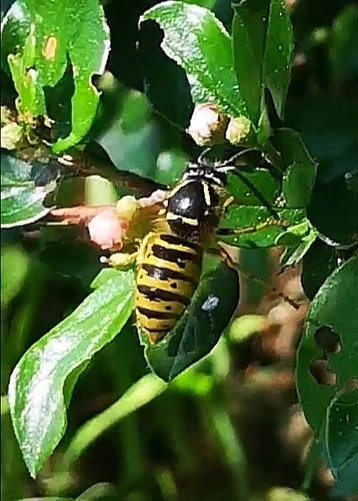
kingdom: Animalia
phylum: Arthropoda
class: Insecta
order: Hymenoptera
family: Vespidae
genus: Dolichovespula
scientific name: Dolichovespula saxonica
